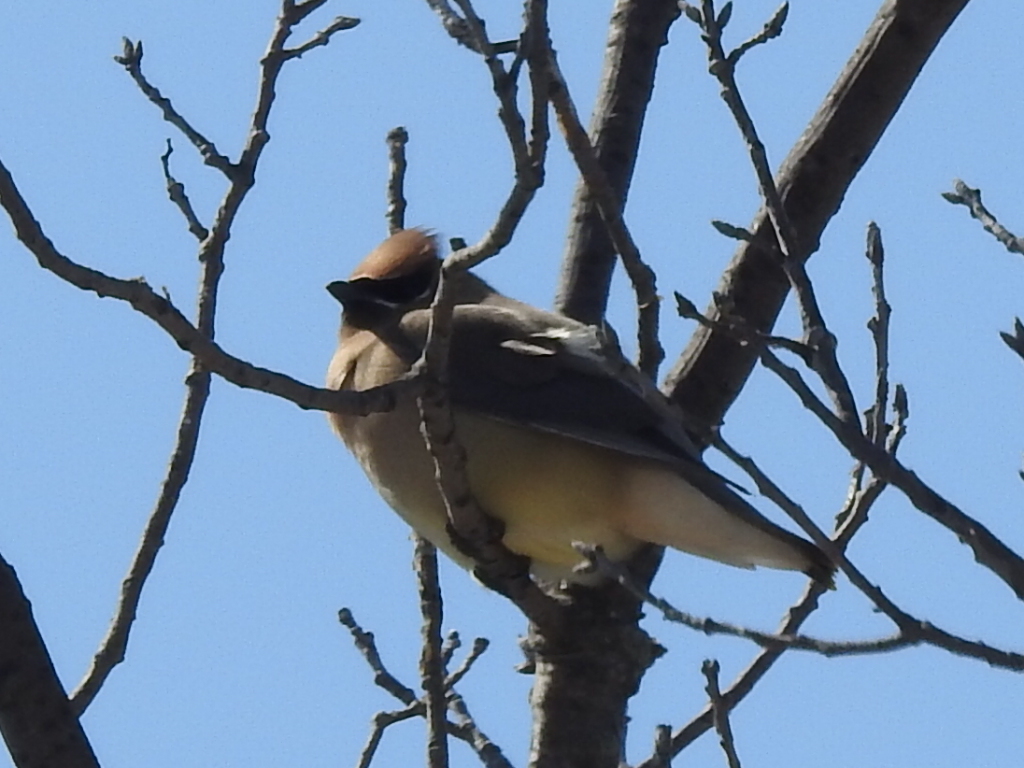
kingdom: Animalia
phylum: Chordata
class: Aves
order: Passeriformes
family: Bombycillidae
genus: Bombycilla
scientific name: Bombycilla cedrorum
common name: Cedar waxwing
